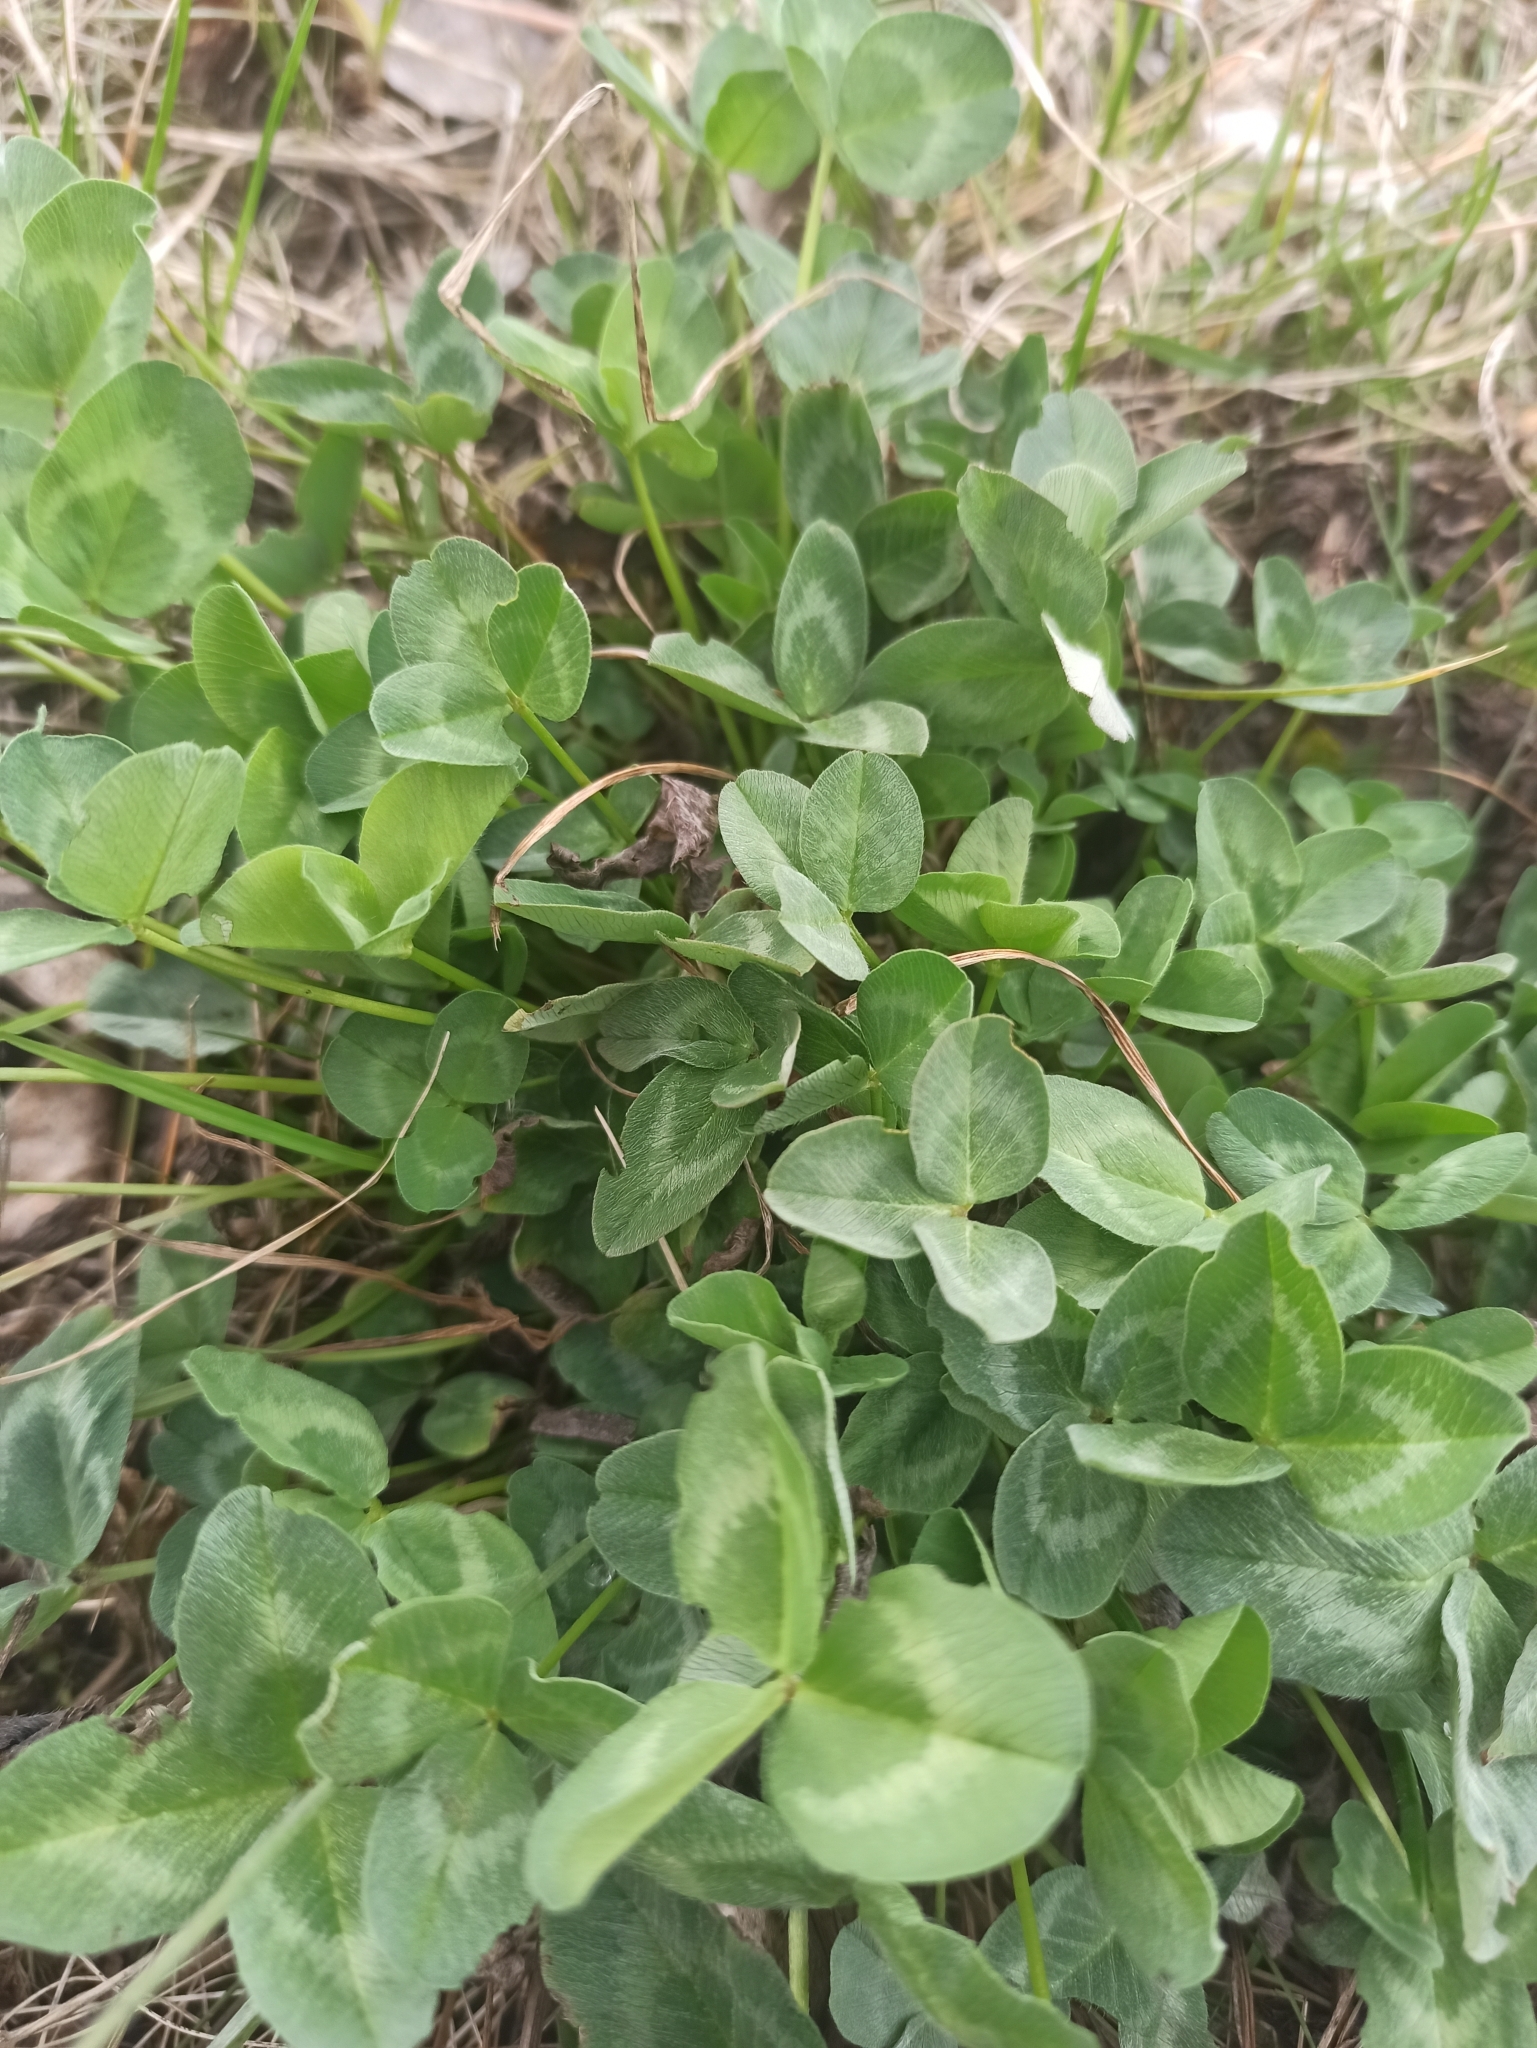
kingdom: Plantae
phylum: Tracheophyta
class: Magnoliopsida
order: Fabales
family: Fabaceae
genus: Trifolium
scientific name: Trifolium pratense
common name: Red clover
